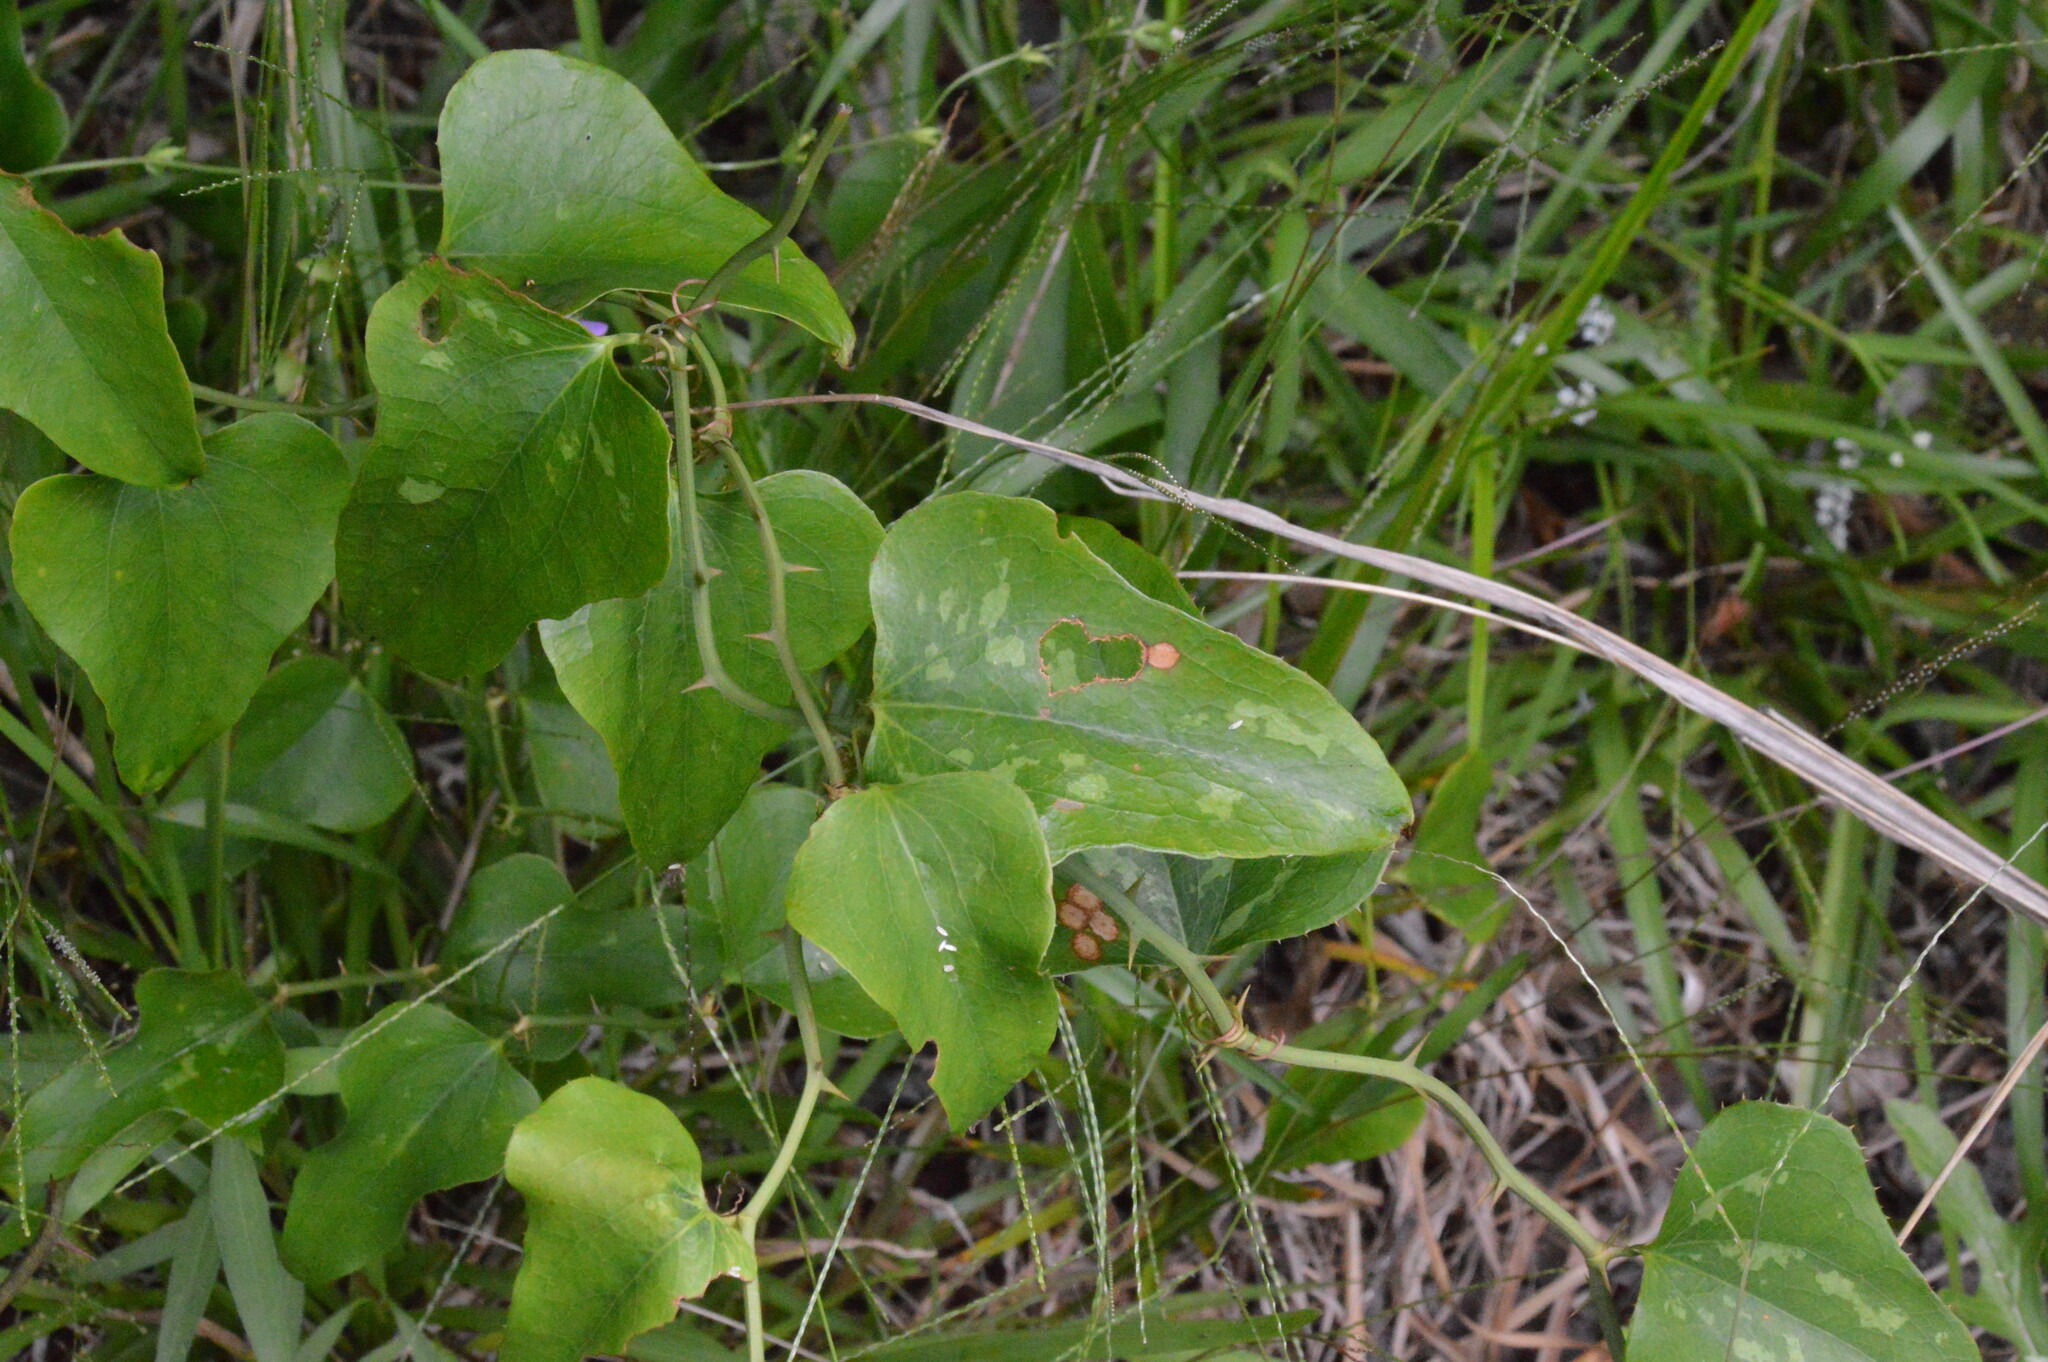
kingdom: Plantae
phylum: Tracheophyta
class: Liliopsida
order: Liliales
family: Smilacaceae
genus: Smilax
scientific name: Smilax bona-nox
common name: Catbrier
